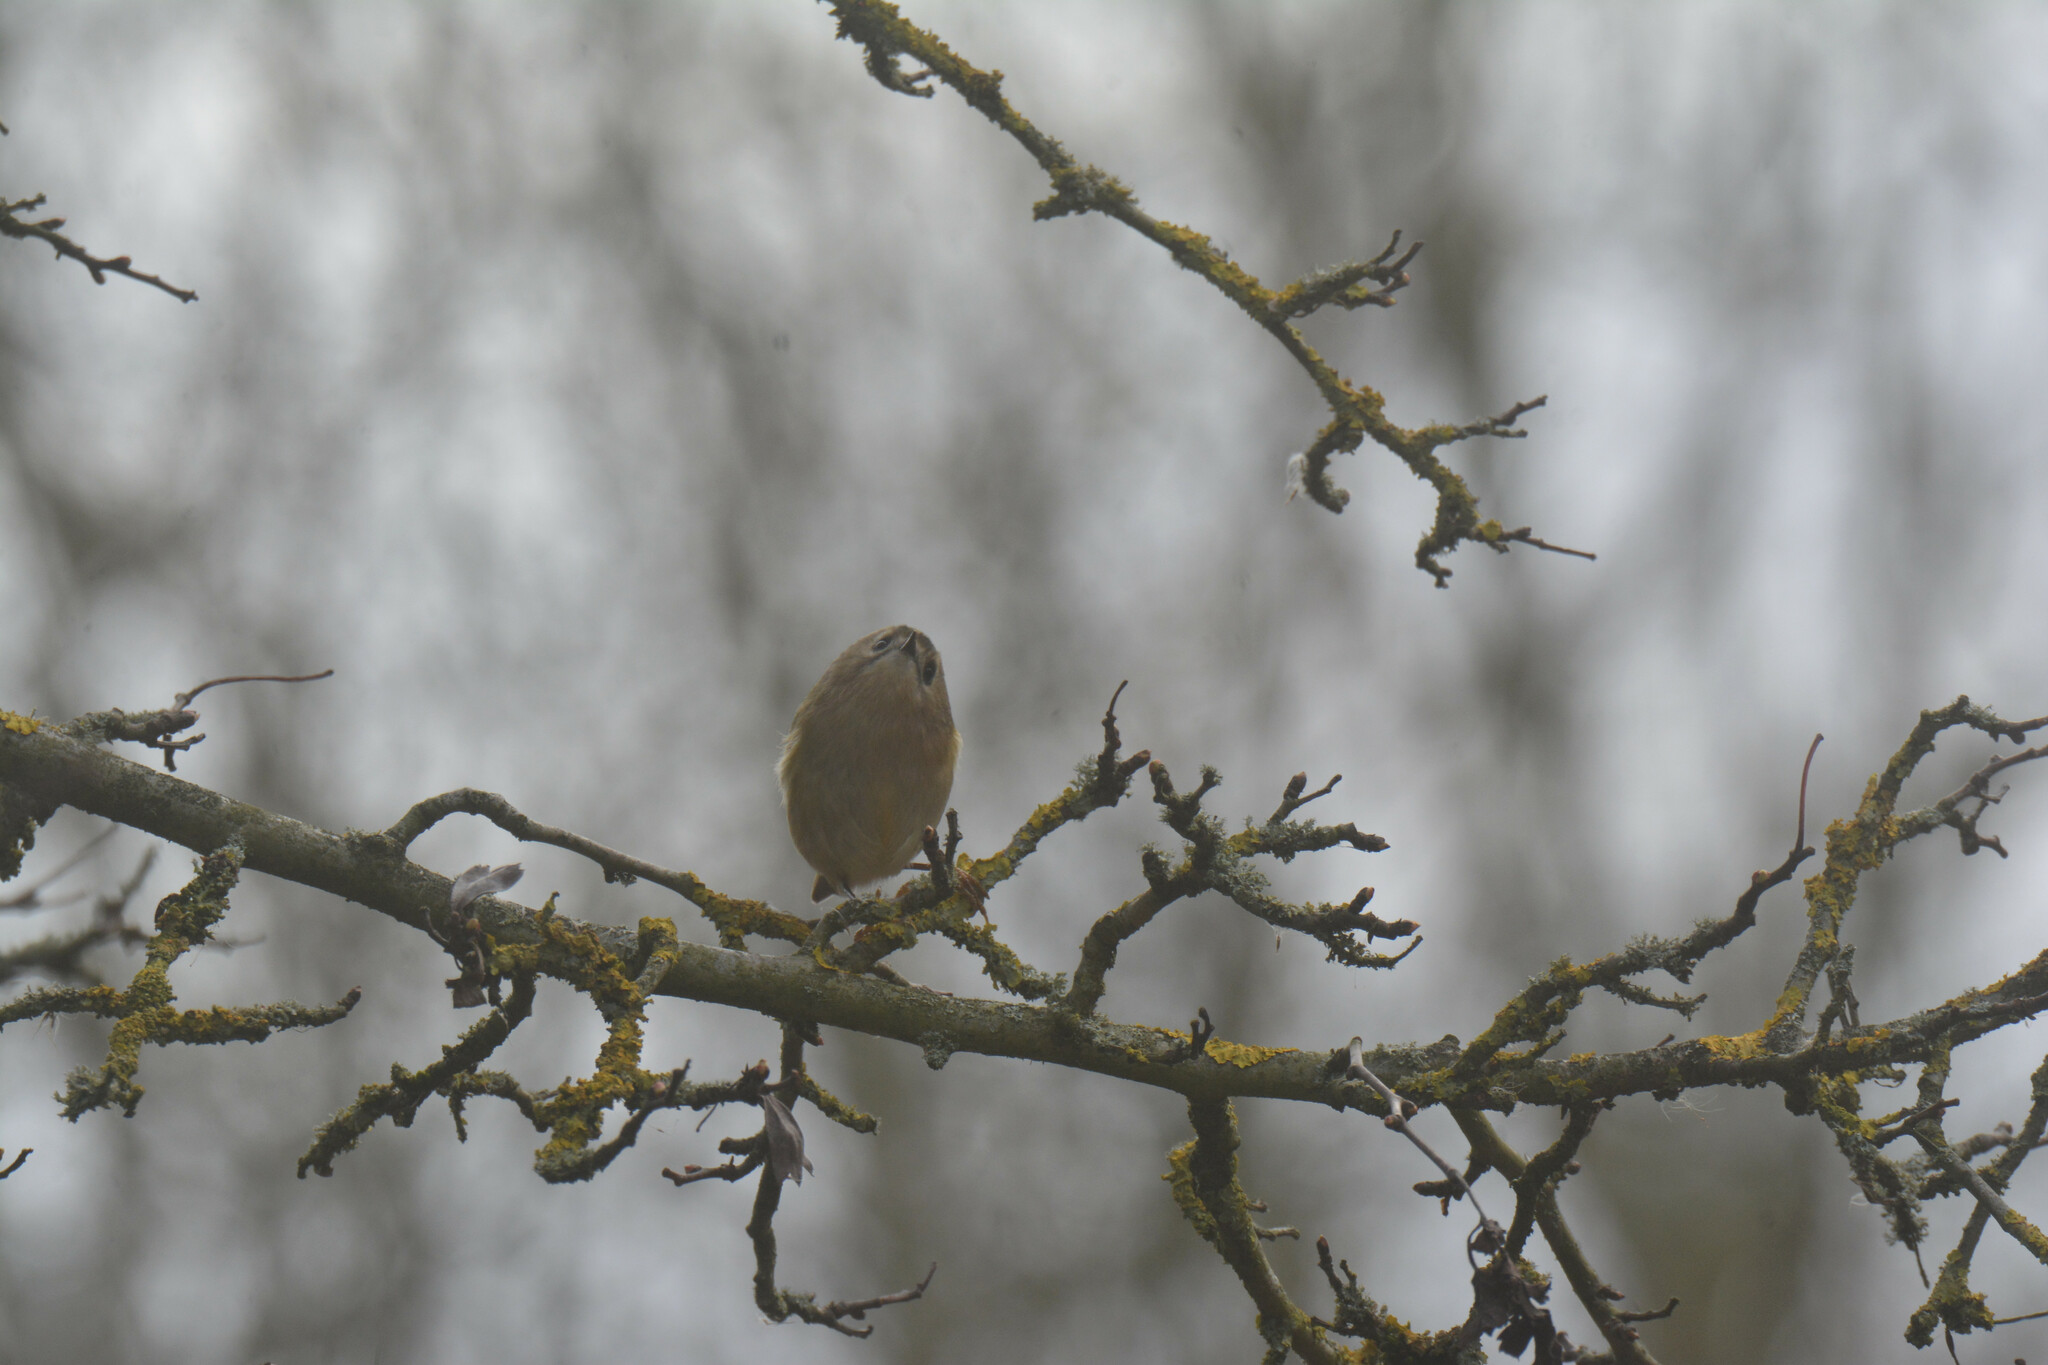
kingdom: Animalia
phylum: Chordata
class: Aves
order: Passeriformes
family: Regulidae
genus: Regulus
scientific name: Regulus regulus
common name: Goldcrest
